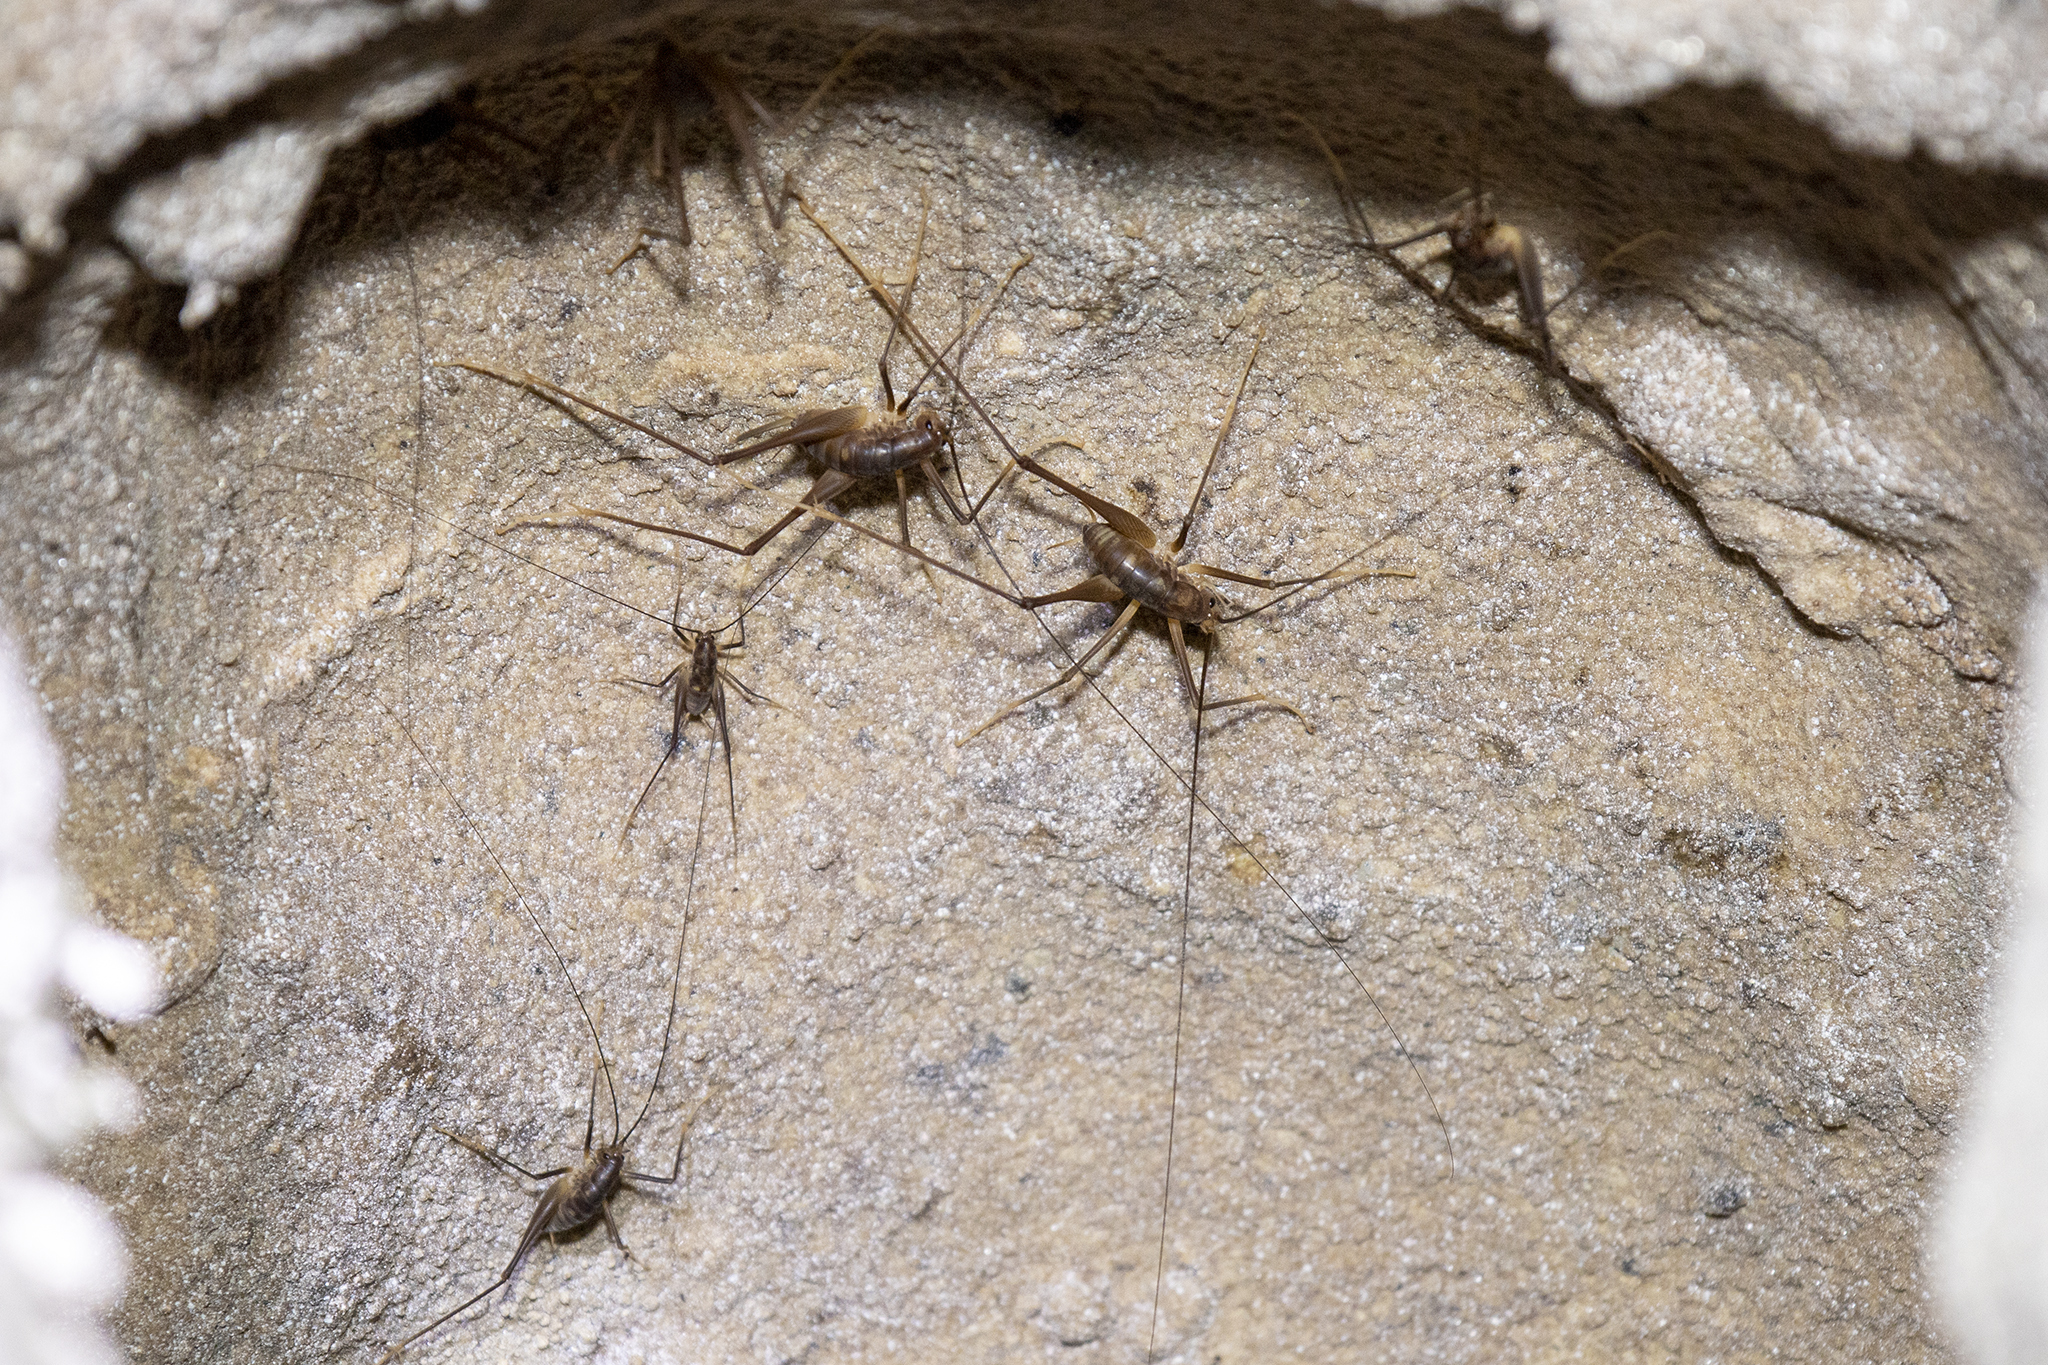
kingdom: Animalia
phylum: Arthropoda
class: Insecta
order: Orthoptera
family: Rhaphidophoridae
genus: Macropathus
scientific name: Macropathus filifer
